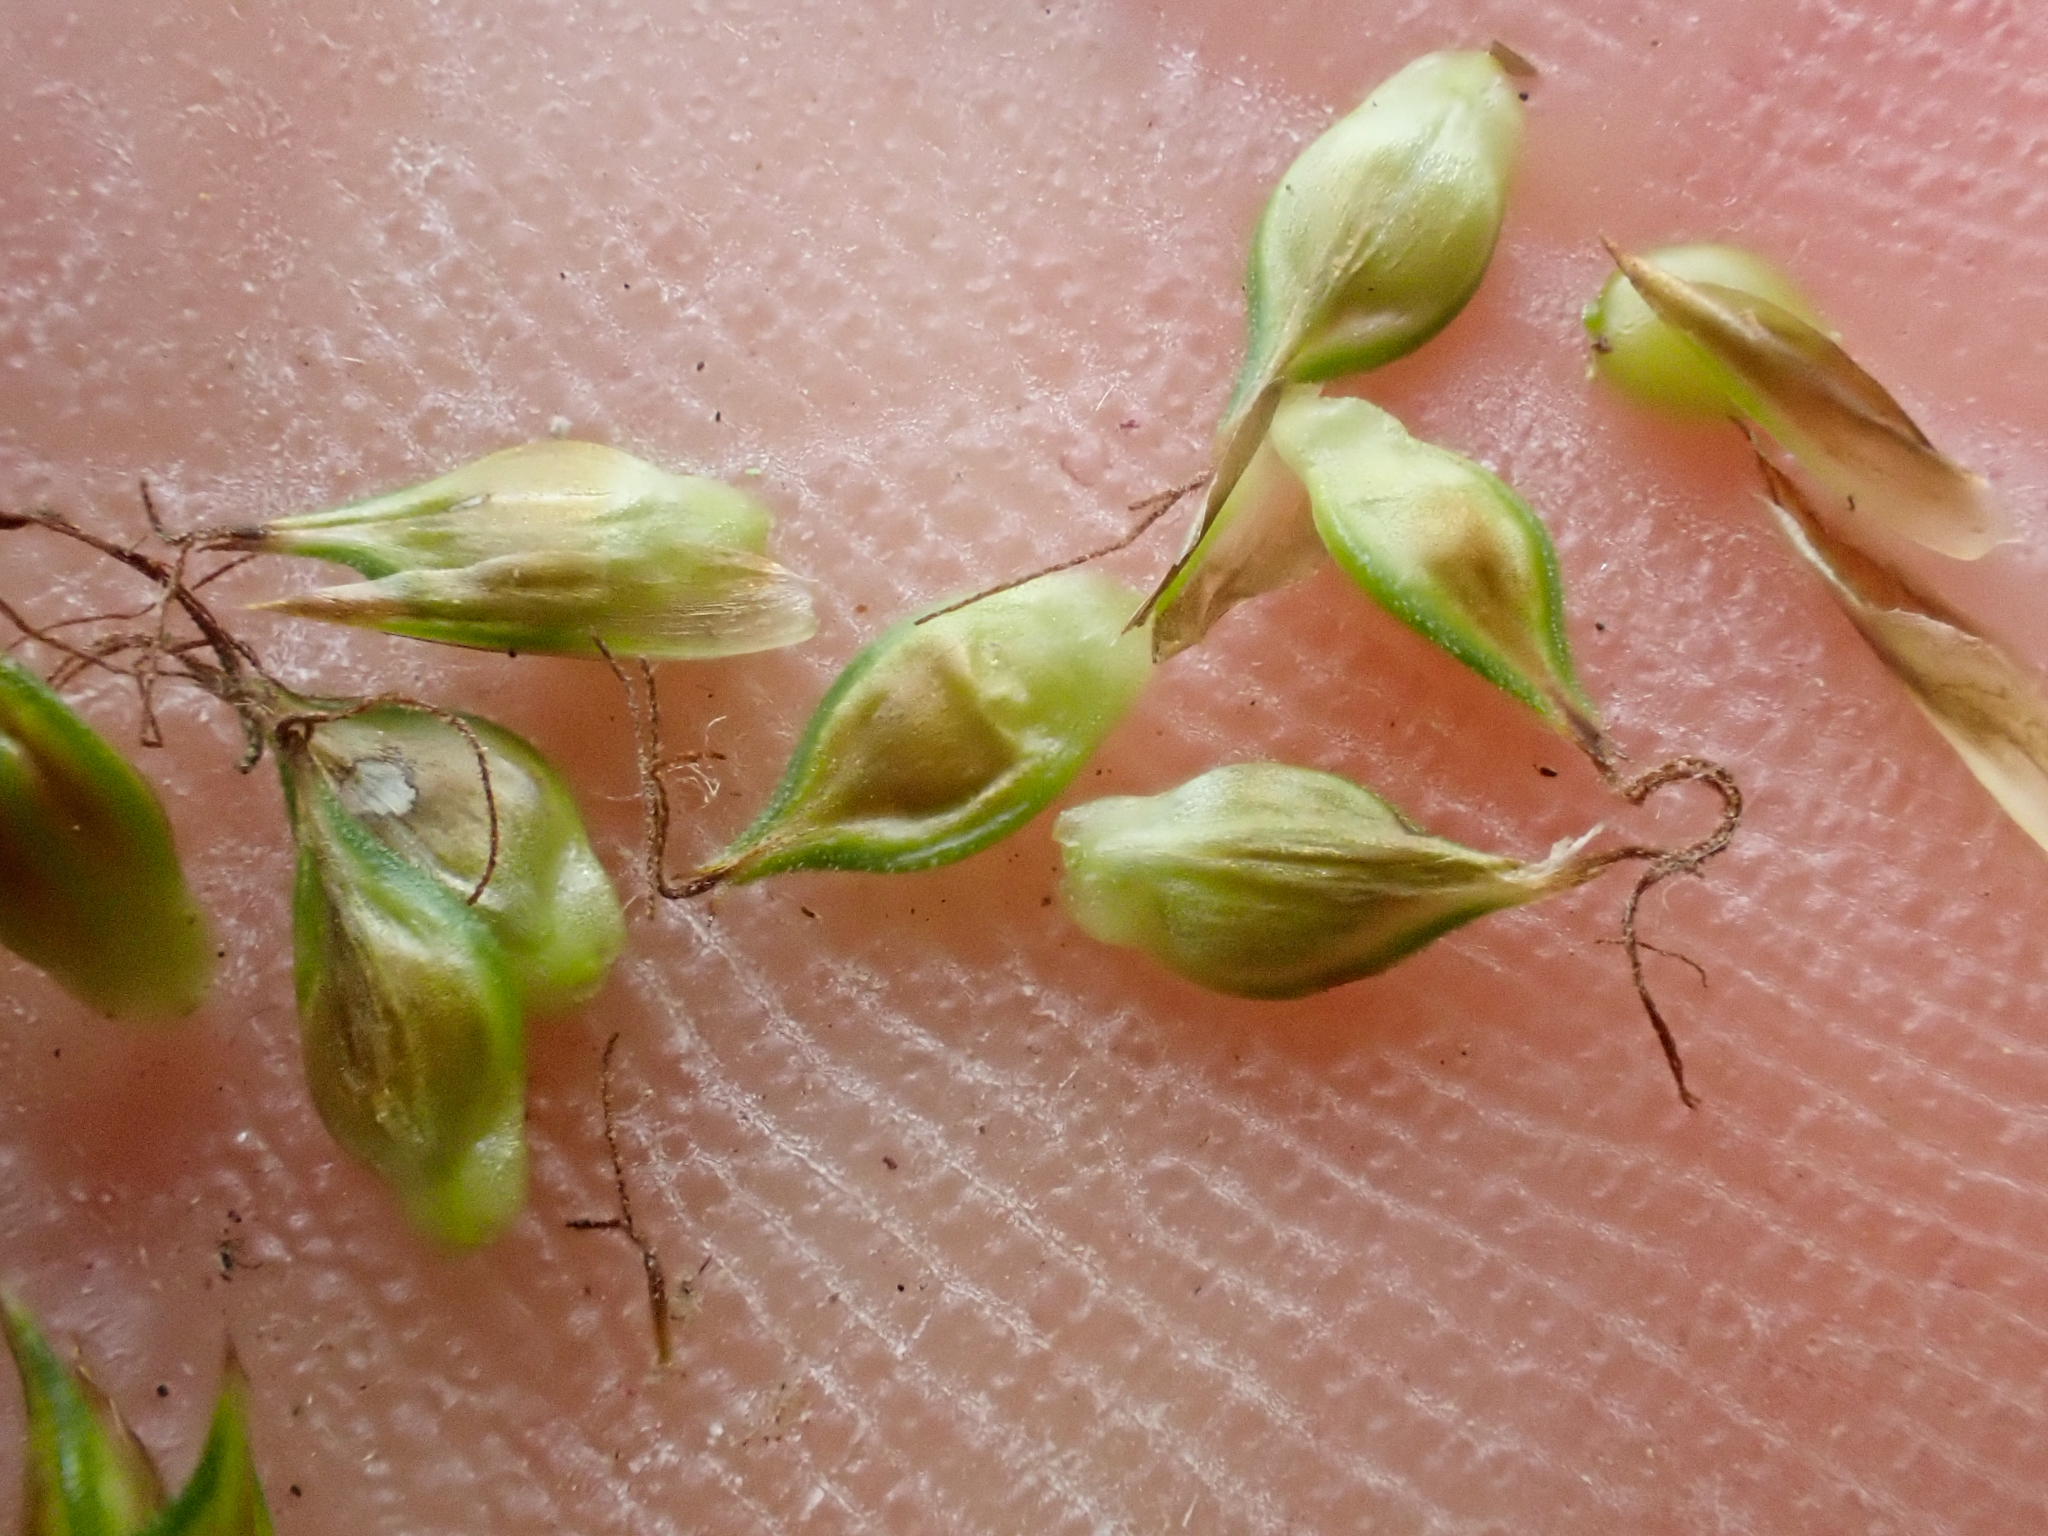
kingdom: Plantae
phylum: Tracheophyta
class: Liliopsida
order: Poales
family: Cyperaceae
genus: Carex
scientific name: Carex hoodii
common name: Hood's sedge
